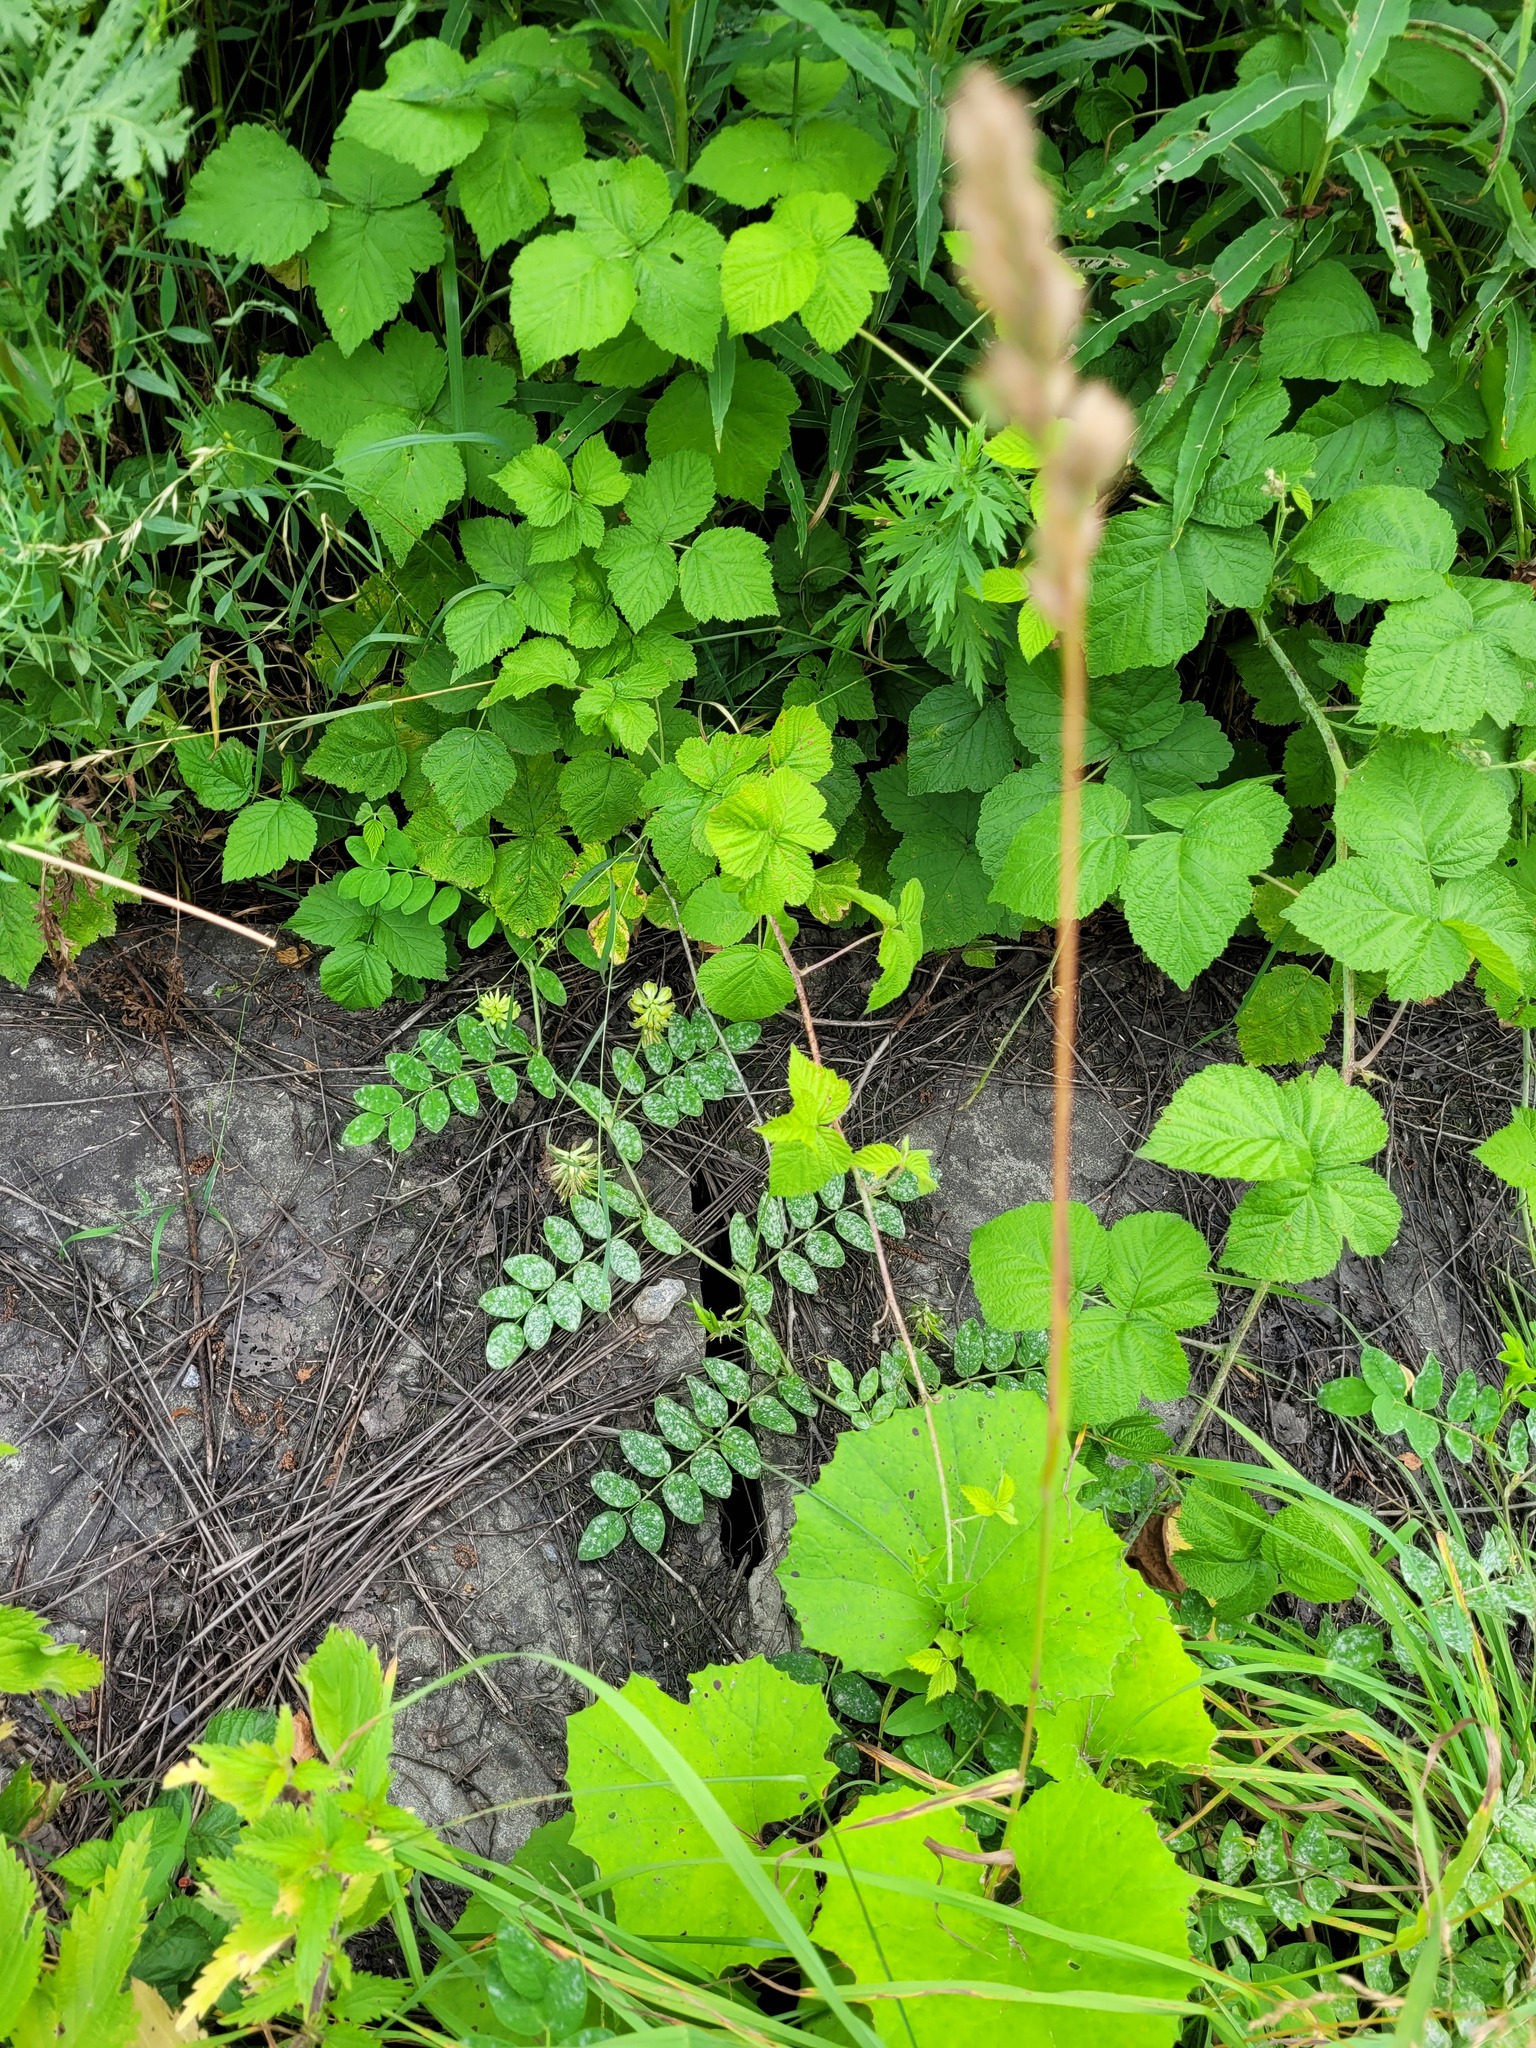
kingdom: Plantae
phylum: Tracheophyta
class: Magnoliopsida
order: Fabales
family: Fabaceae
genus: Astragalus
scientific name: Astragalus glycyphyllos
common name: Wild liquorice
